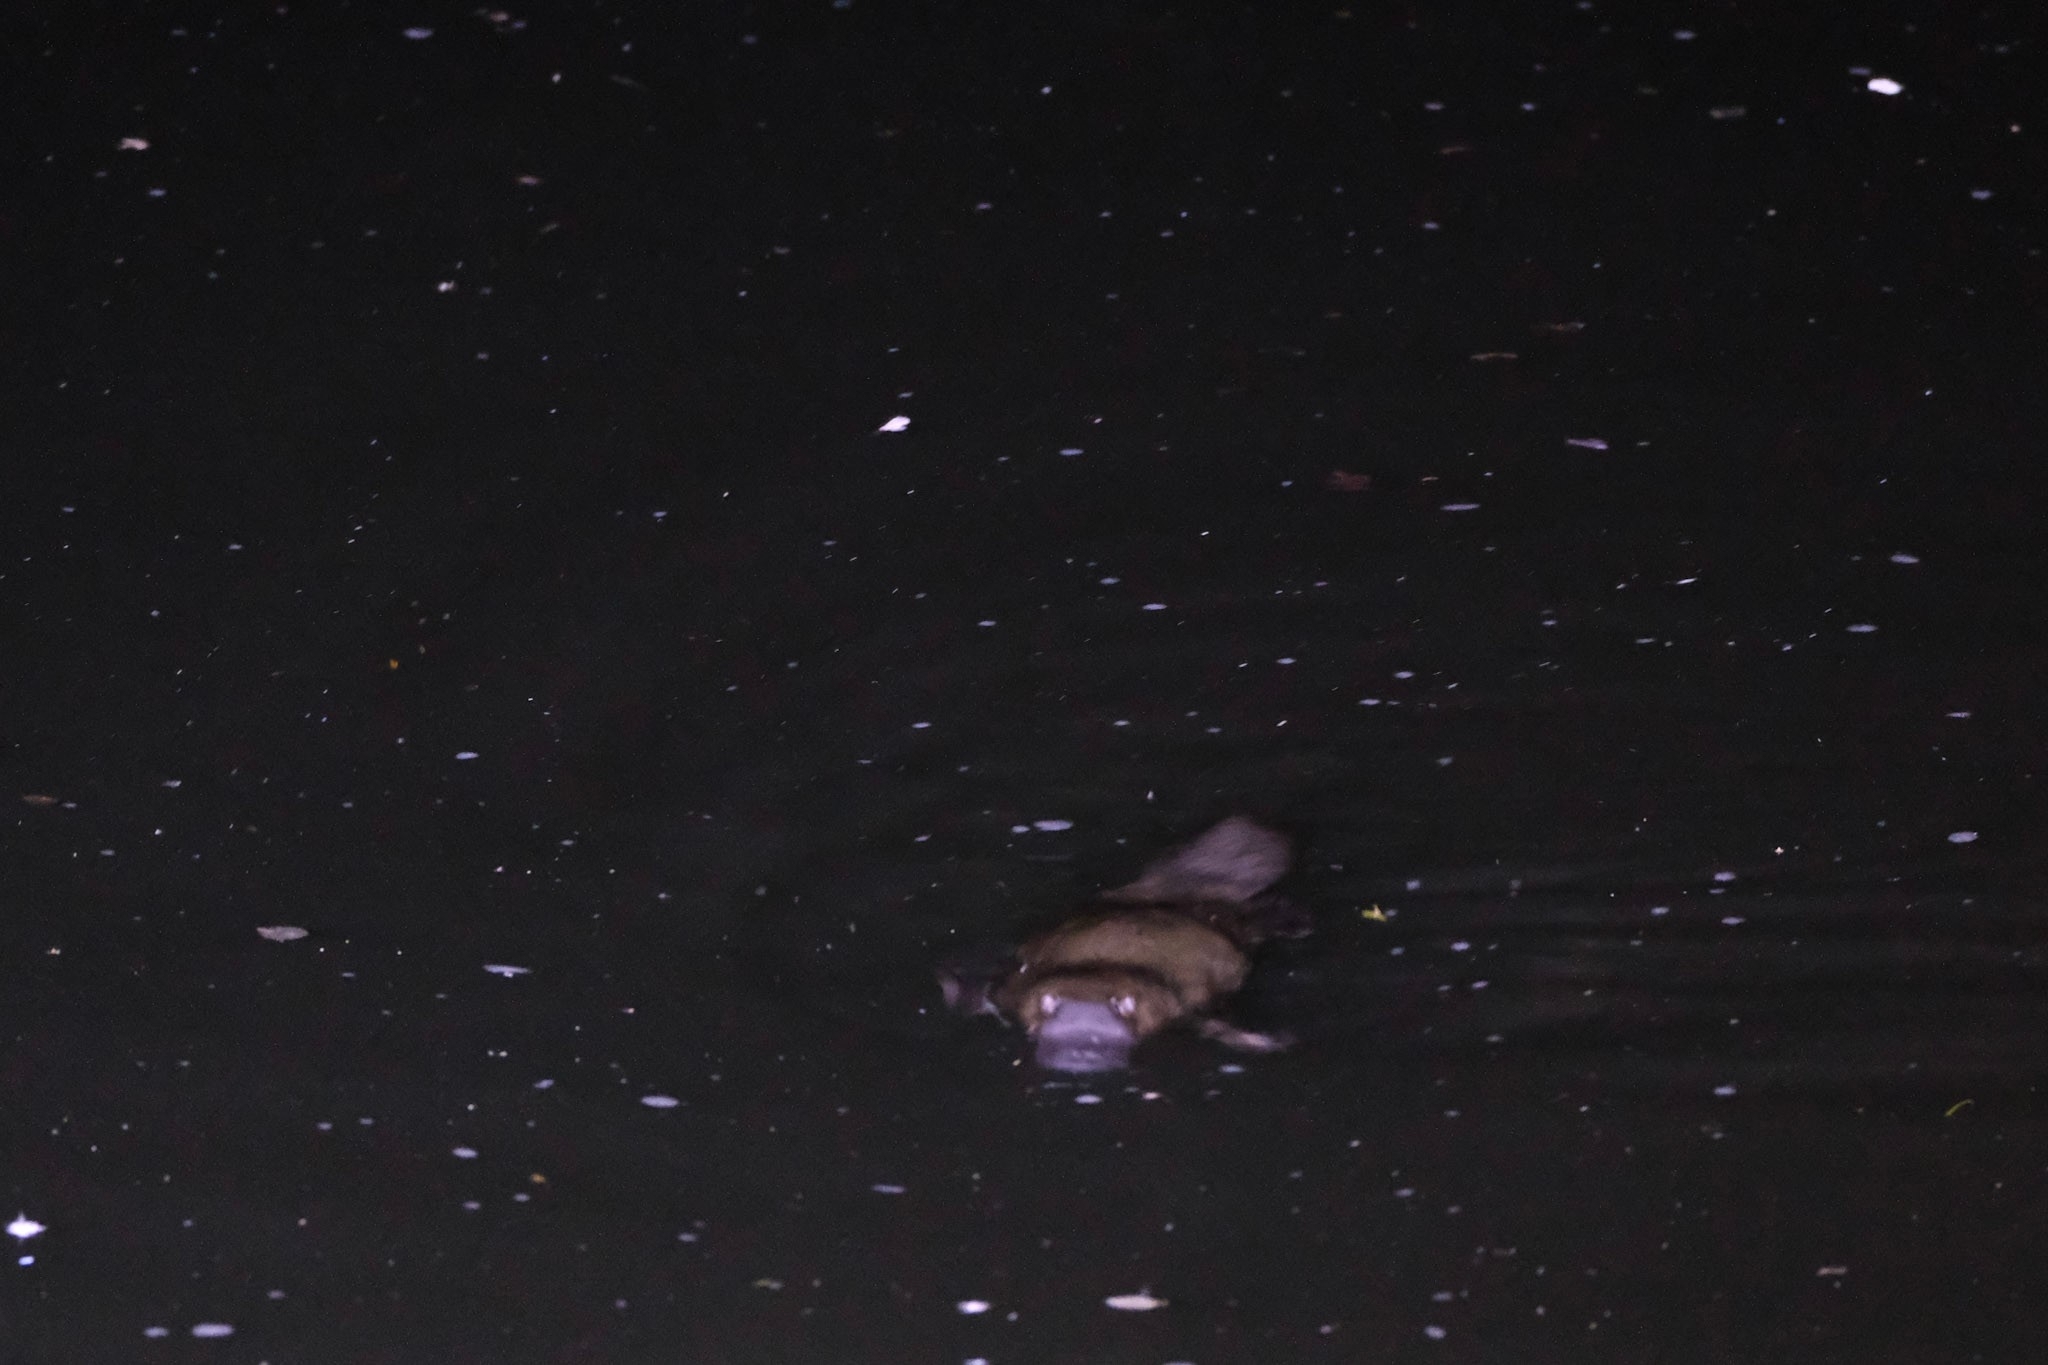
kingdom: Animalia
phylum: Chordata
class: Mammalia
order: Monotremata
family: Ornithorhynchidae
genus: Ornithorhynchus
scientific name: Ornithorhynchus anatinus
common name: Platypus
